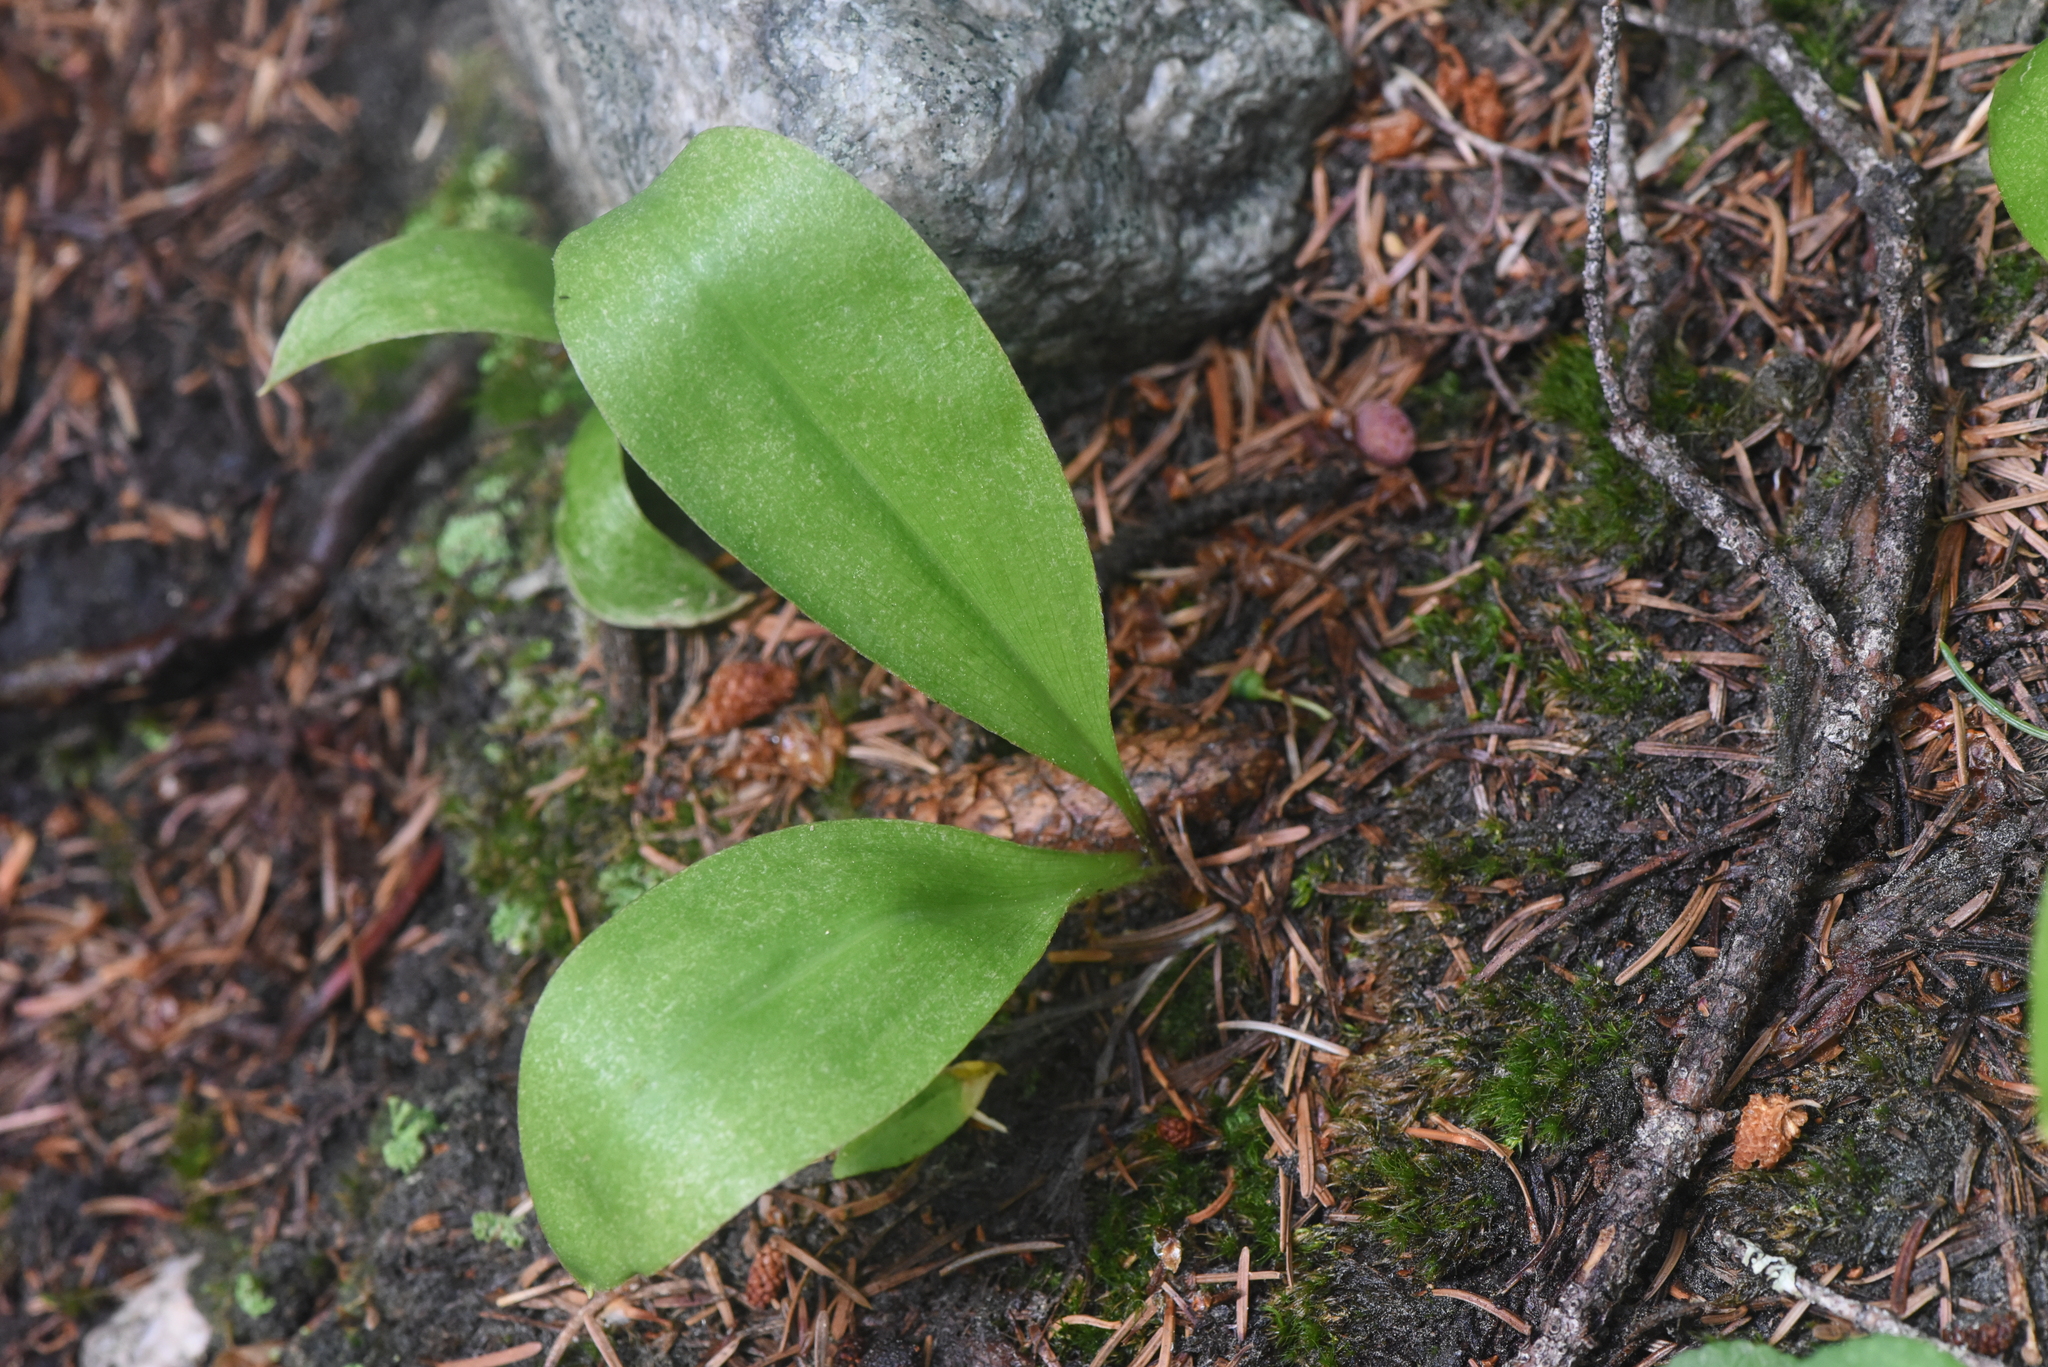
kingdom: Plantae
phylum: Tracheophyta
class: Liliopsida
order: Liliales
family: Liliaceae
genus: Clintonia
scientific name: Clintonia uniflora
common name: Queen's cup
